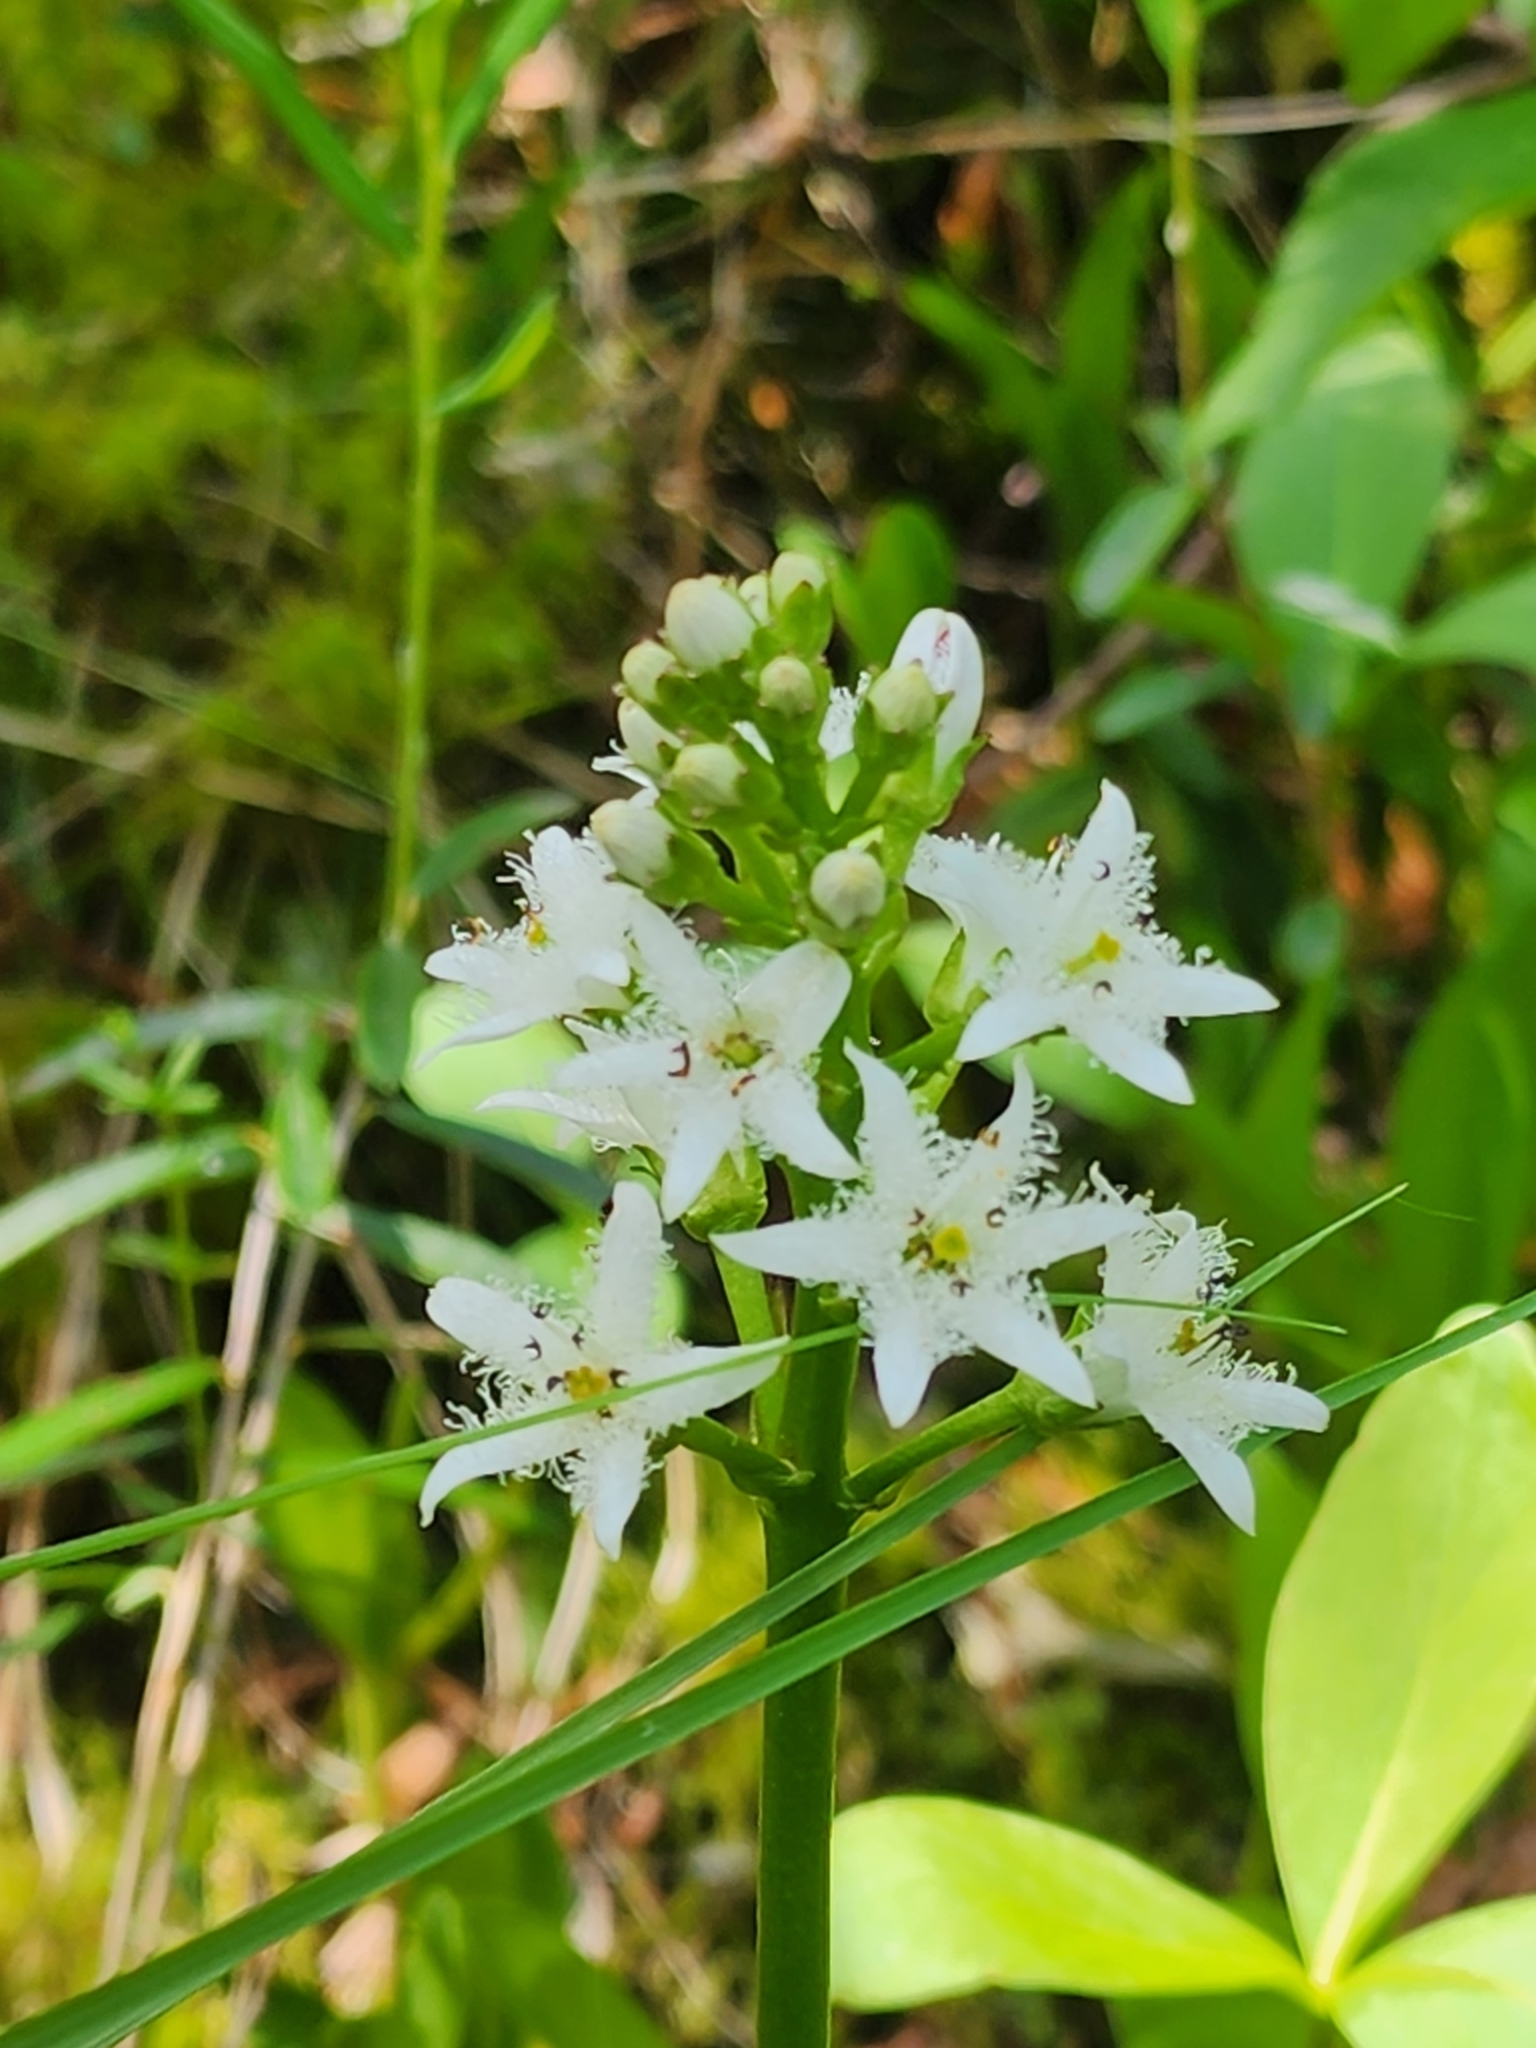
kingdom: Plantae
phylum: Tracheophyta
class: Magnoliopsida
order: Asterales
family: Menyanthaceae
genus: Menyanthes
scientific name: Menyanthes trifoliata
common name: Bogbean
